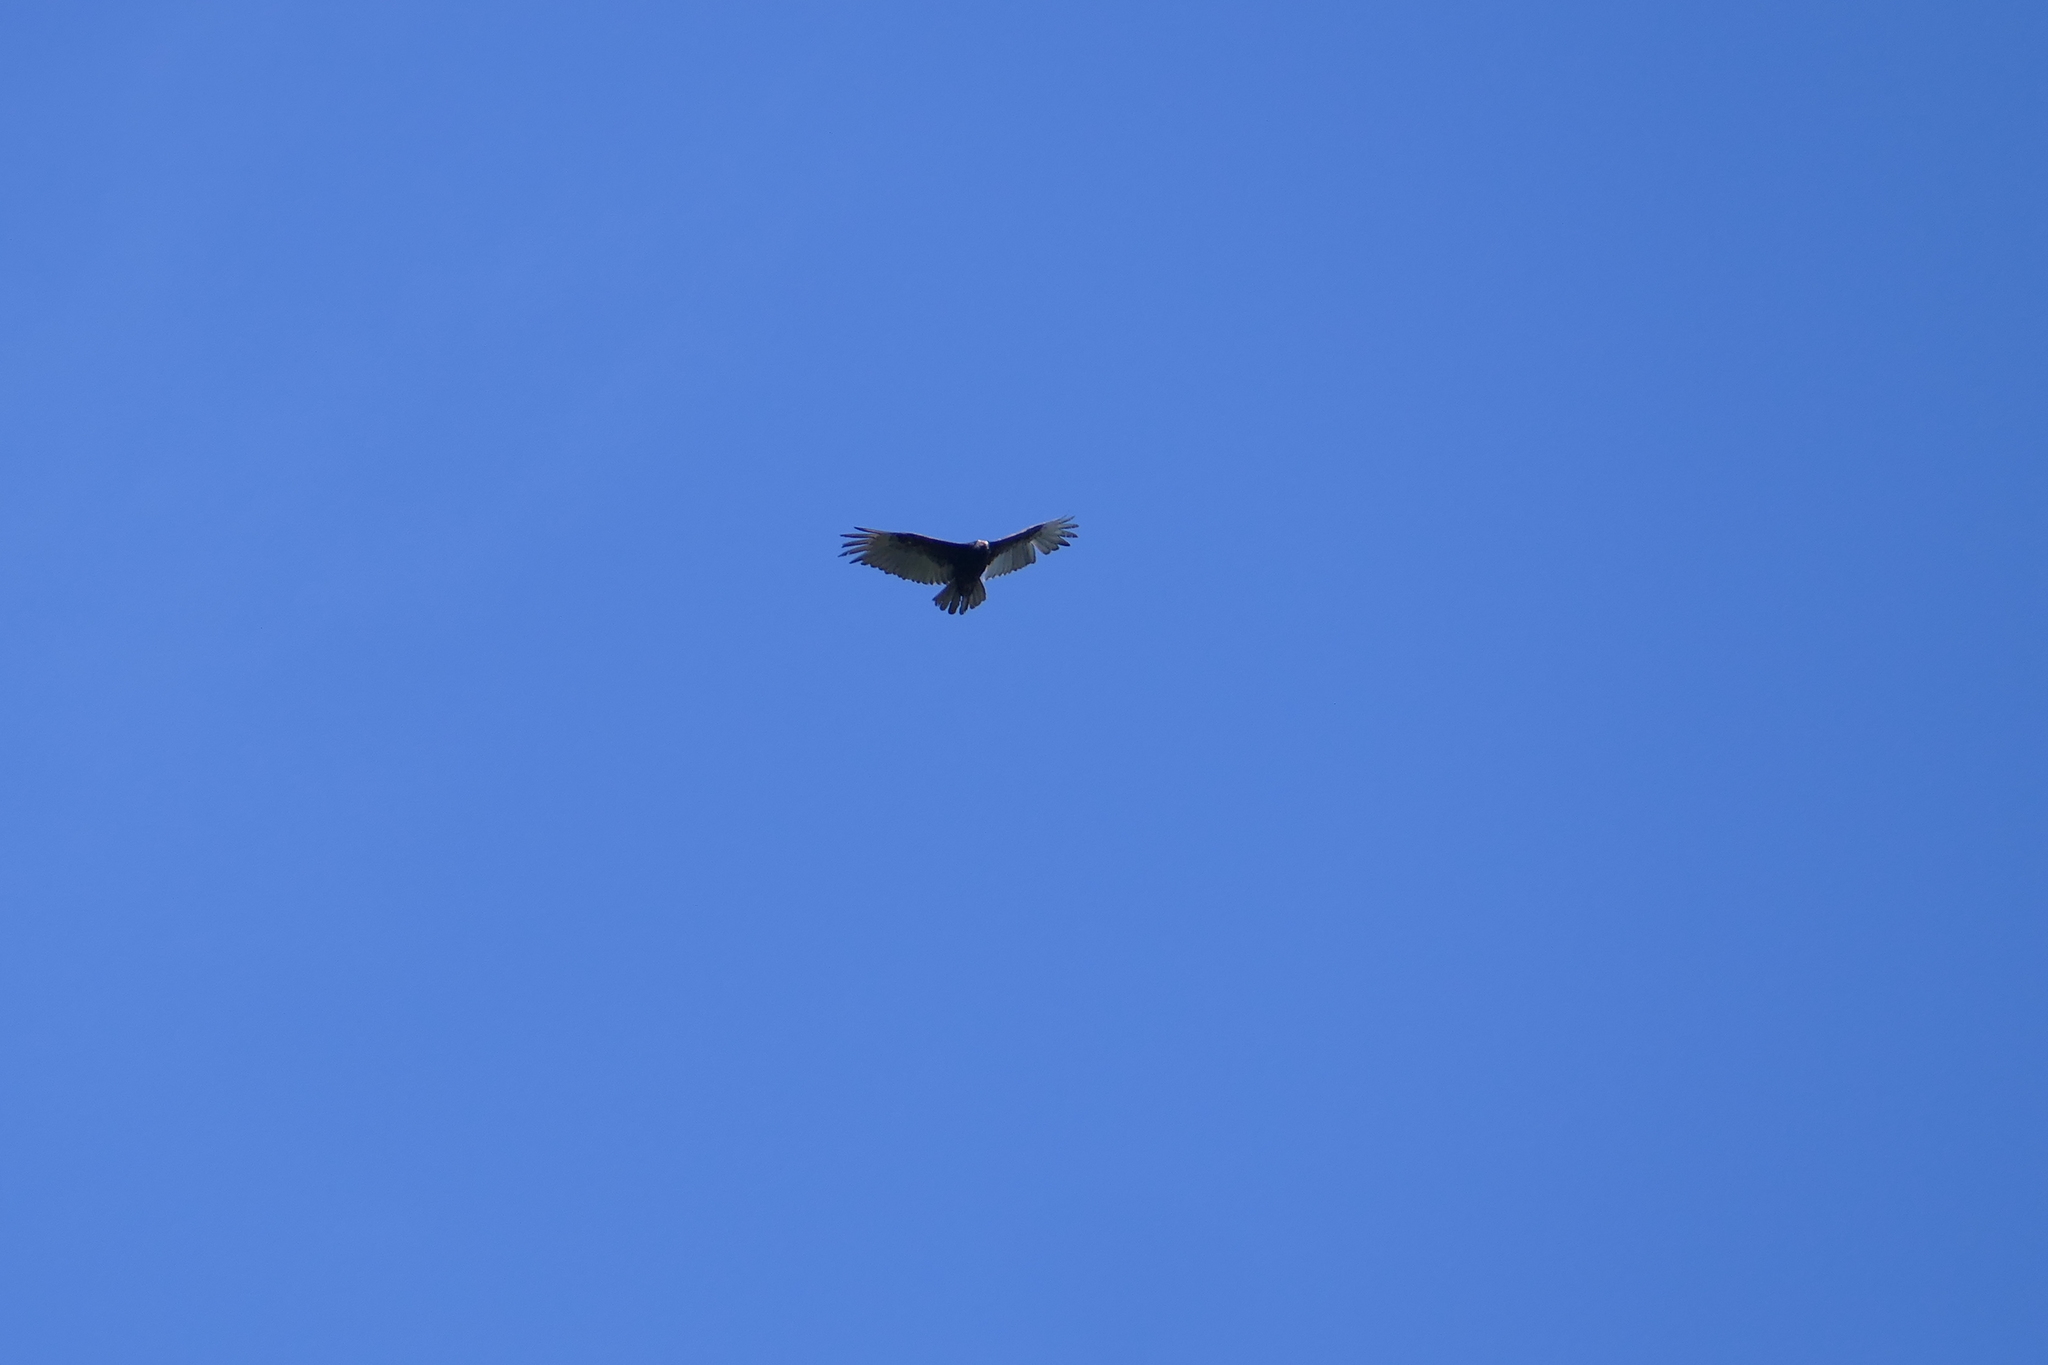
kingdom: Animalia
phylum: Chordata
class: Aves
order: Accipitriformes
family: Cathartidae
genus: Cathartes
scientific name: Cathartes aura
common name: Turkey vulture
